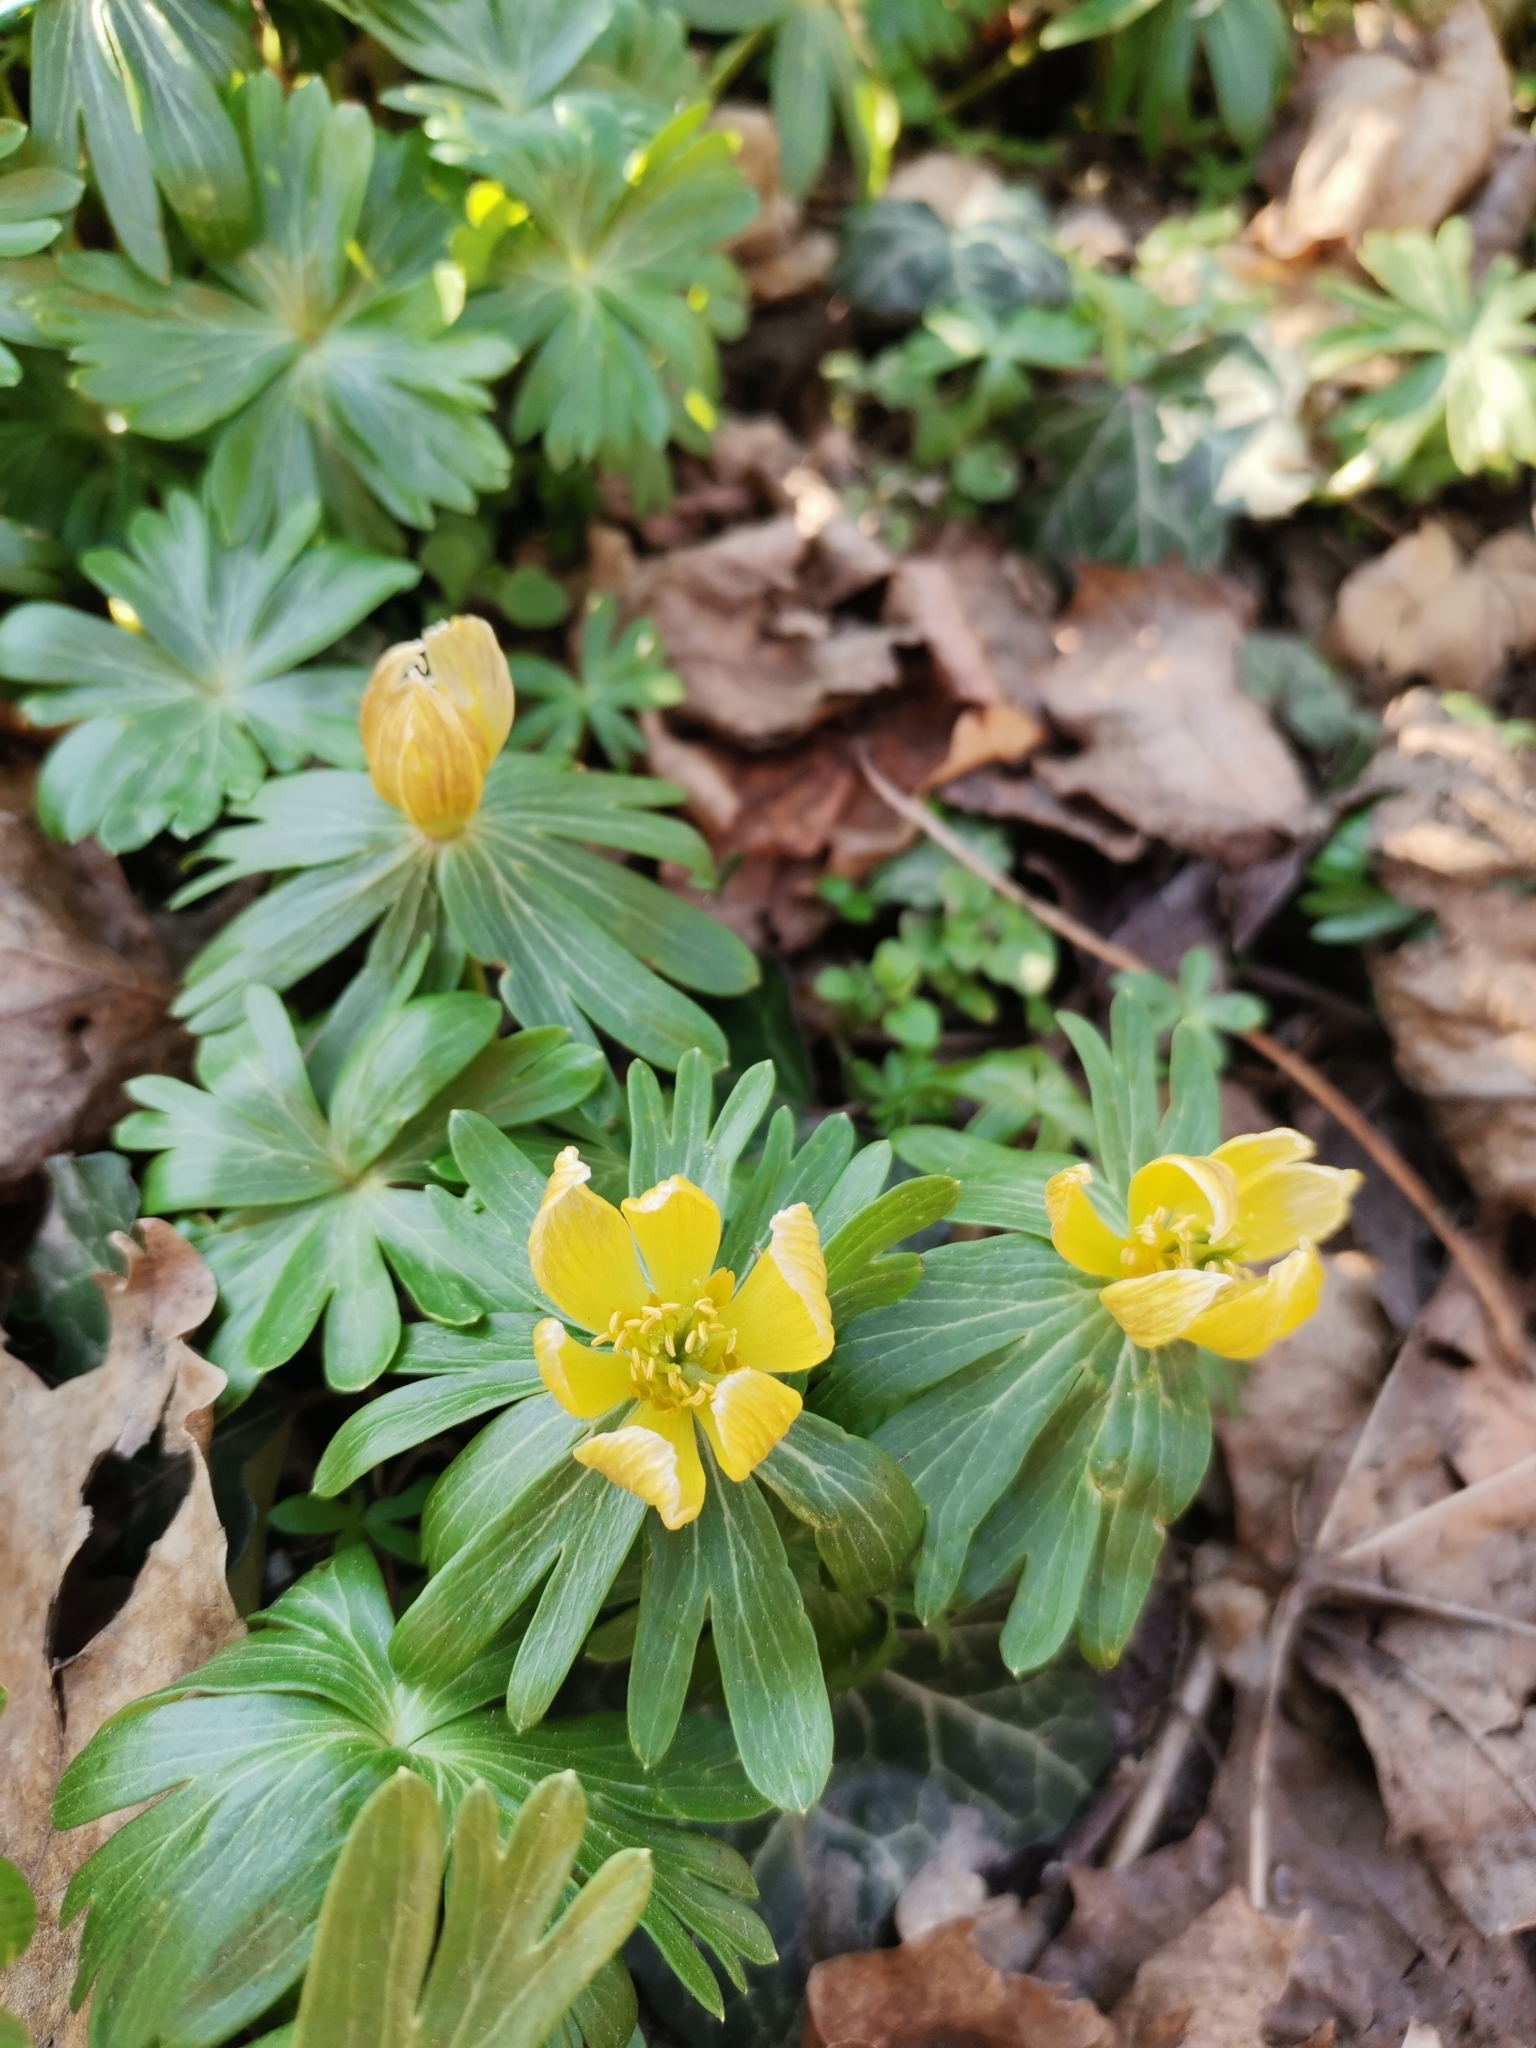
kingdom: Plantae
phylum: Tracheophyta
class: Magnoliopsida
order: Ranunculales
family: Ranunculaceae
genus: Eranthis
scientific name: Eranthis hyemalis
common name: Winter aconite
